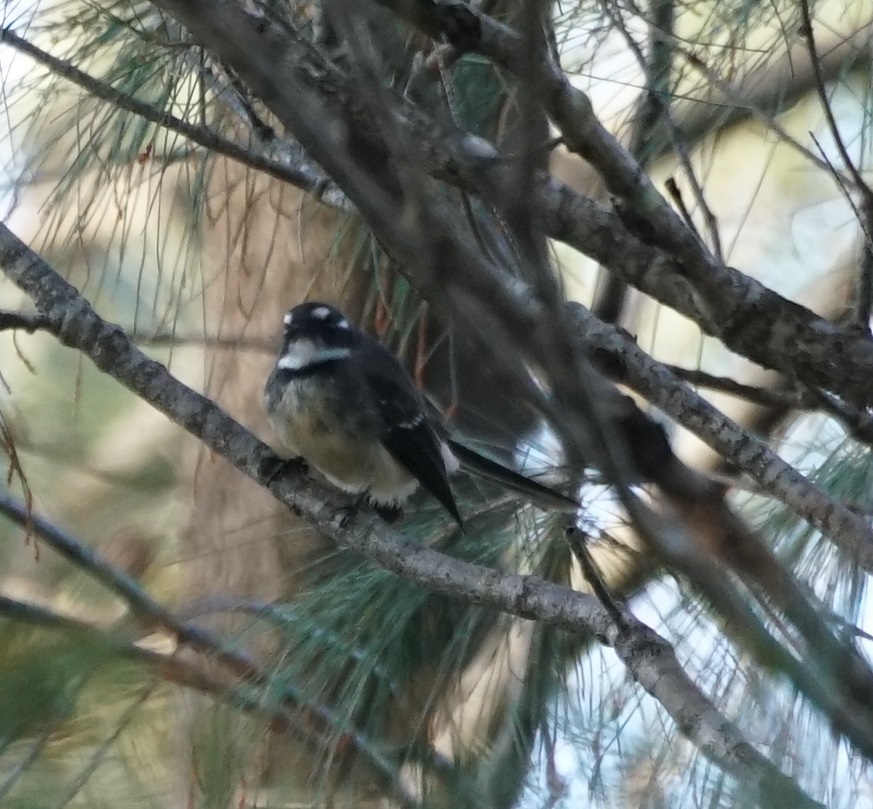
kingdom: Animalia
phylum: Chordata
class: Aves
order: Passeriformes
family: Rhipiduridae
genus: Rhipidura
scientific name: Rhipidura albiscapa
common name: Grey fantail
